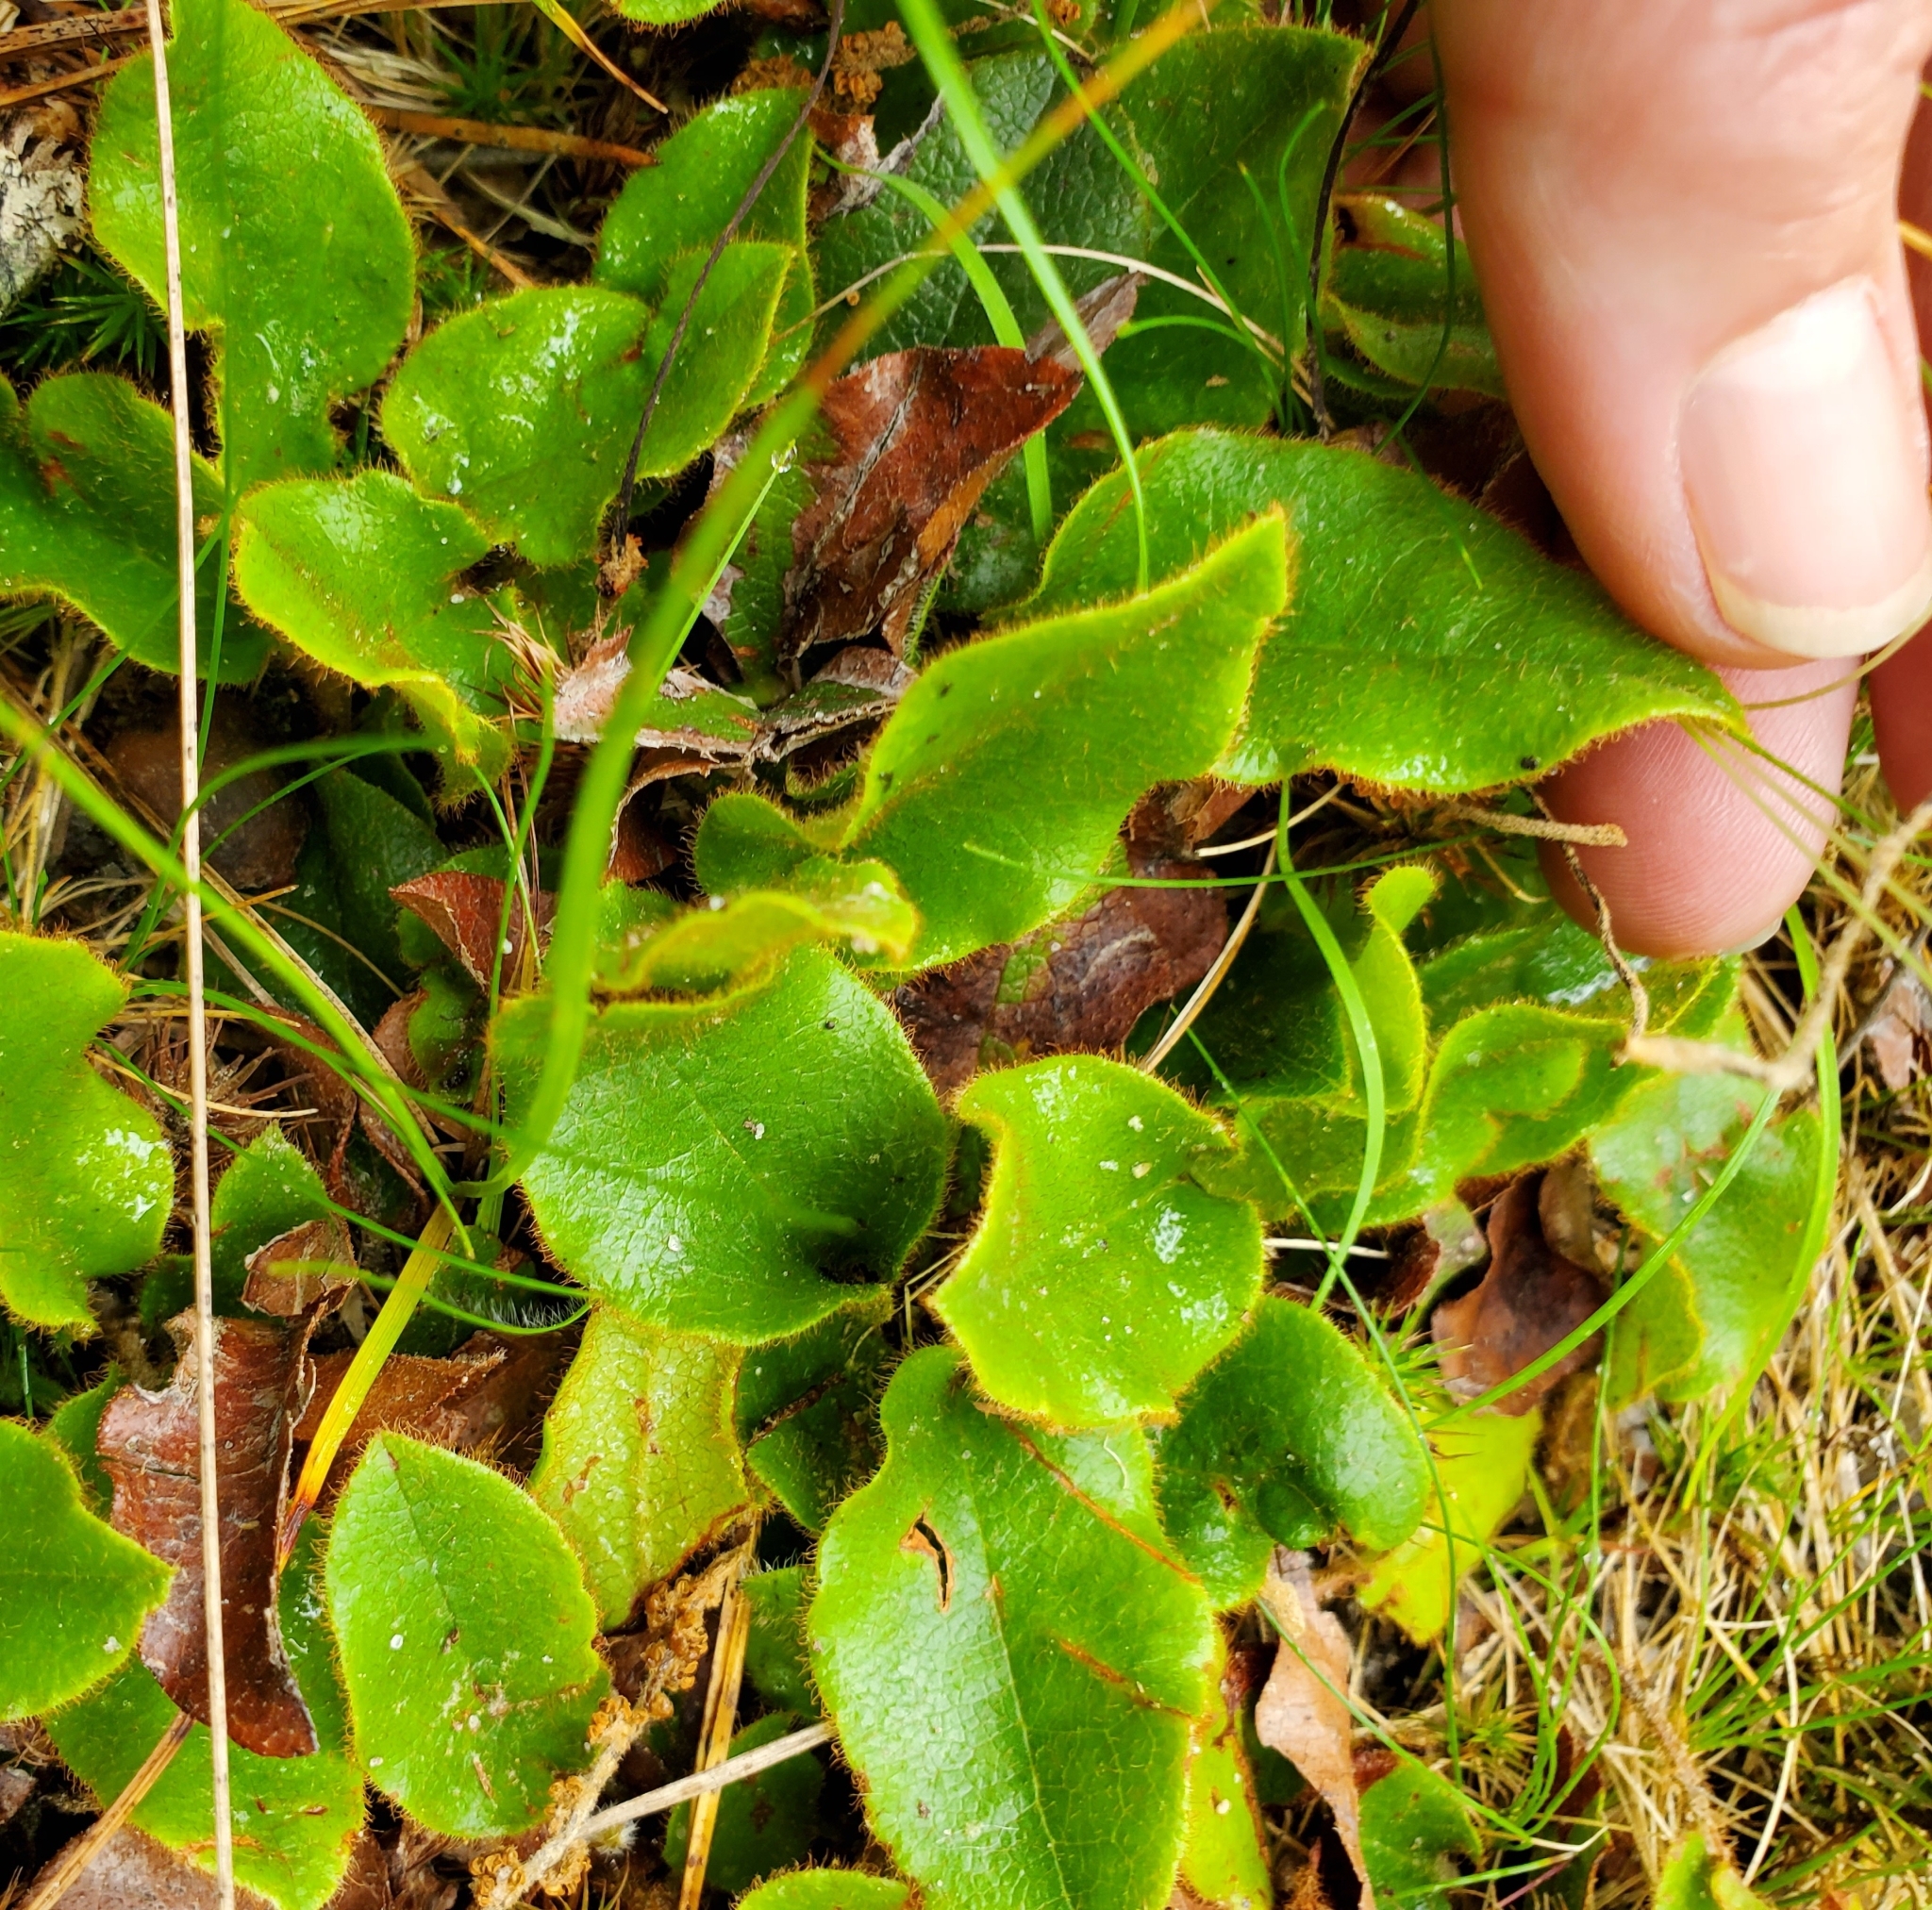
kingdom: Plantae
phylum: Tracheophyta
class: Magnoliopsida
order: Ericales
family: Ericaceae
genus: Epigaea
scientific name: Epigaea repens
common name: Gravelroot
